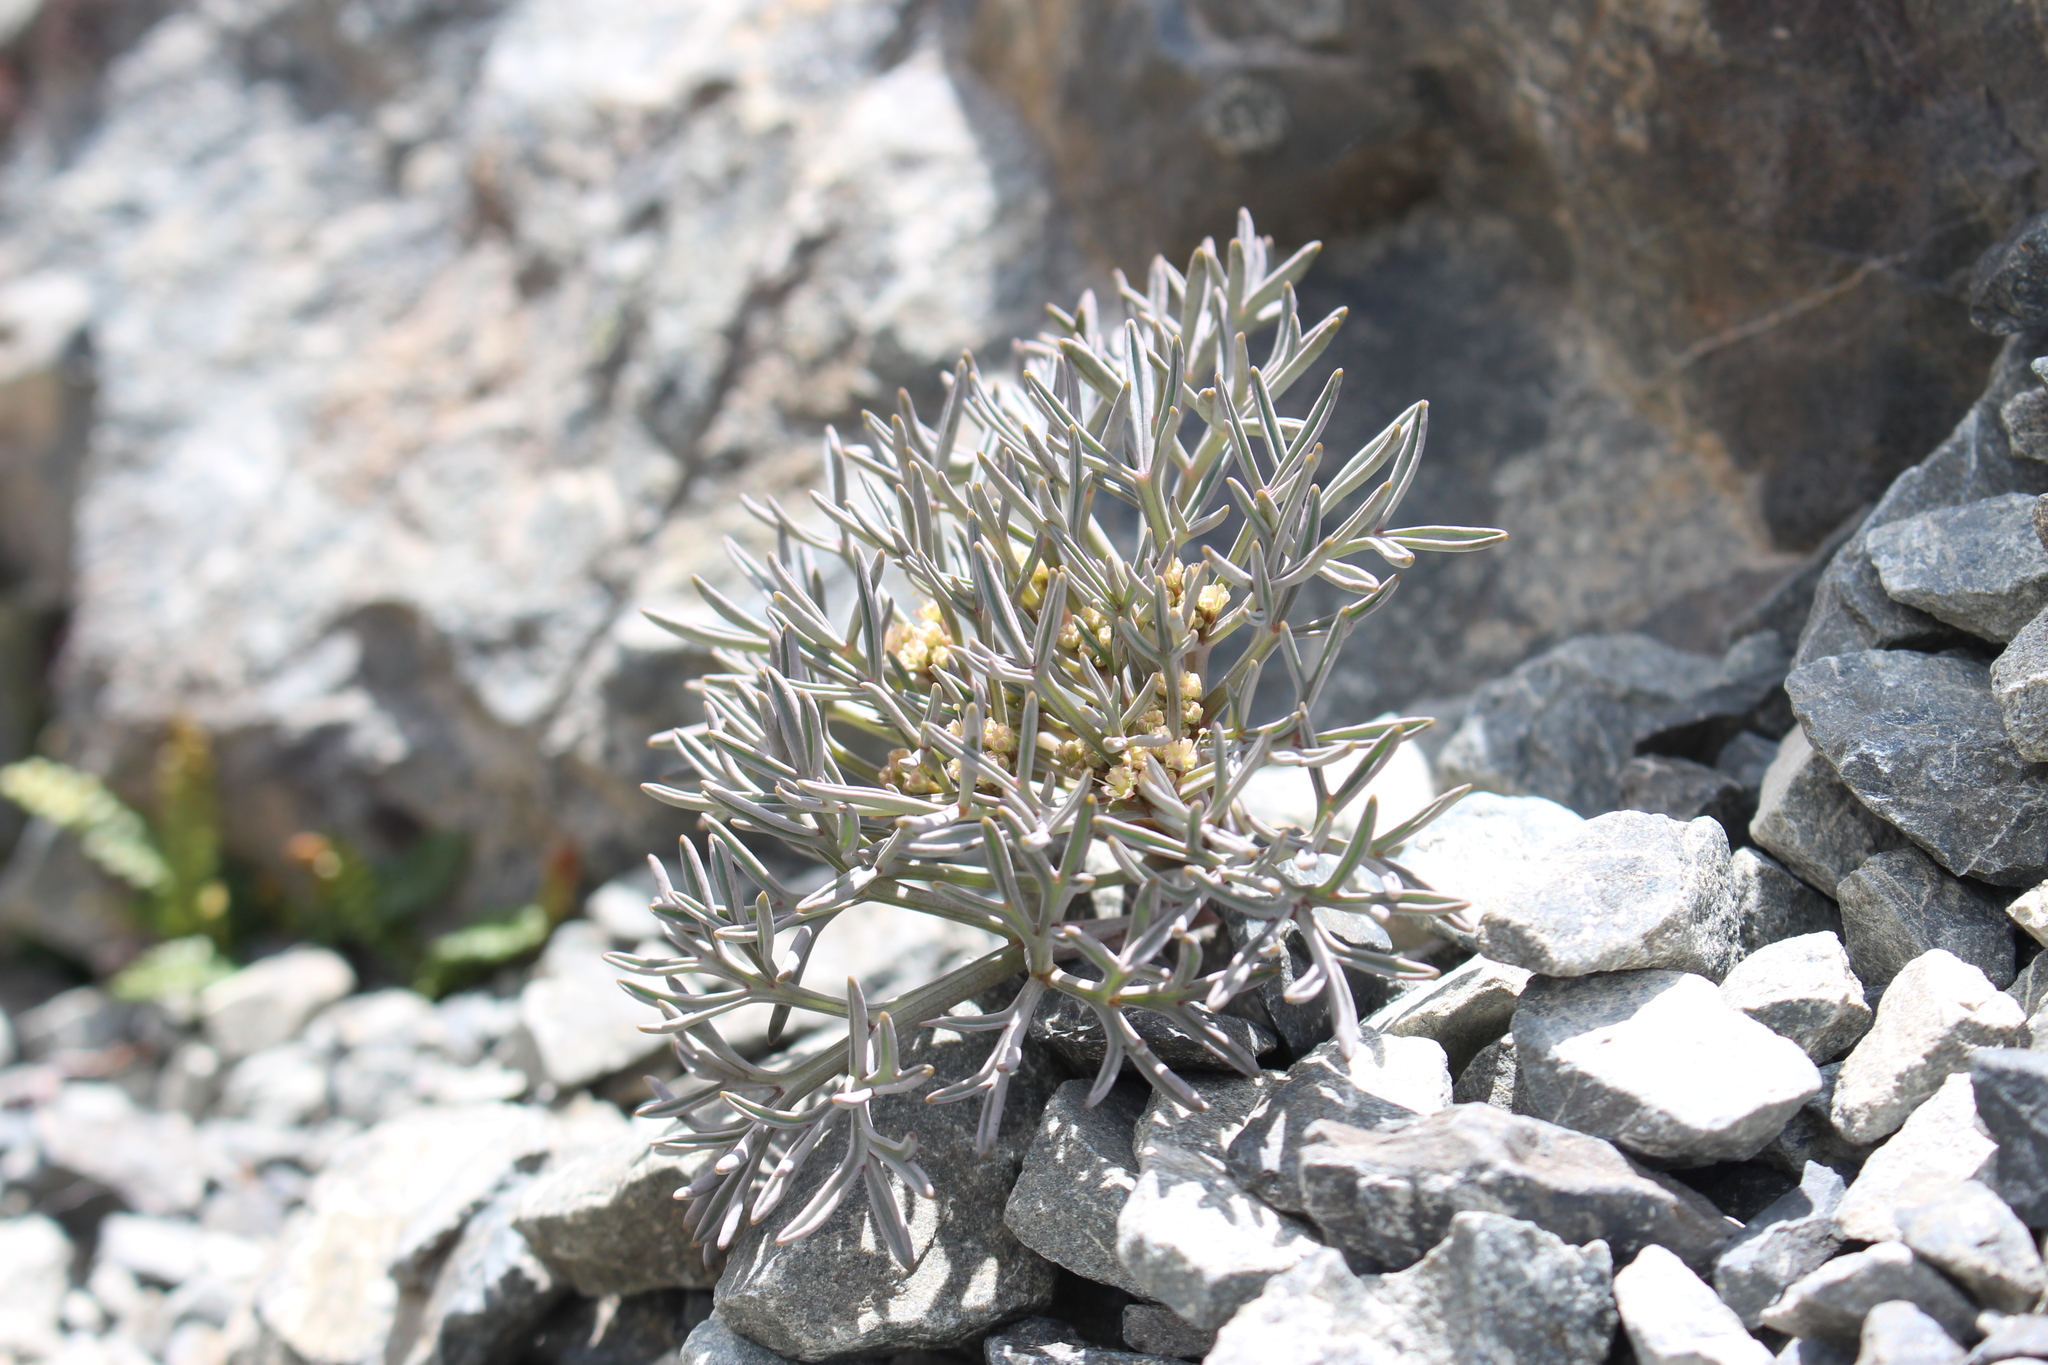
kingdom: Plantae
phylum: Tracheophyta
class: Magnoliopsida
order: Apiales
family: Apiaceae
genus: Lignocarpa
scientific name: Lignocarpa carnosula
